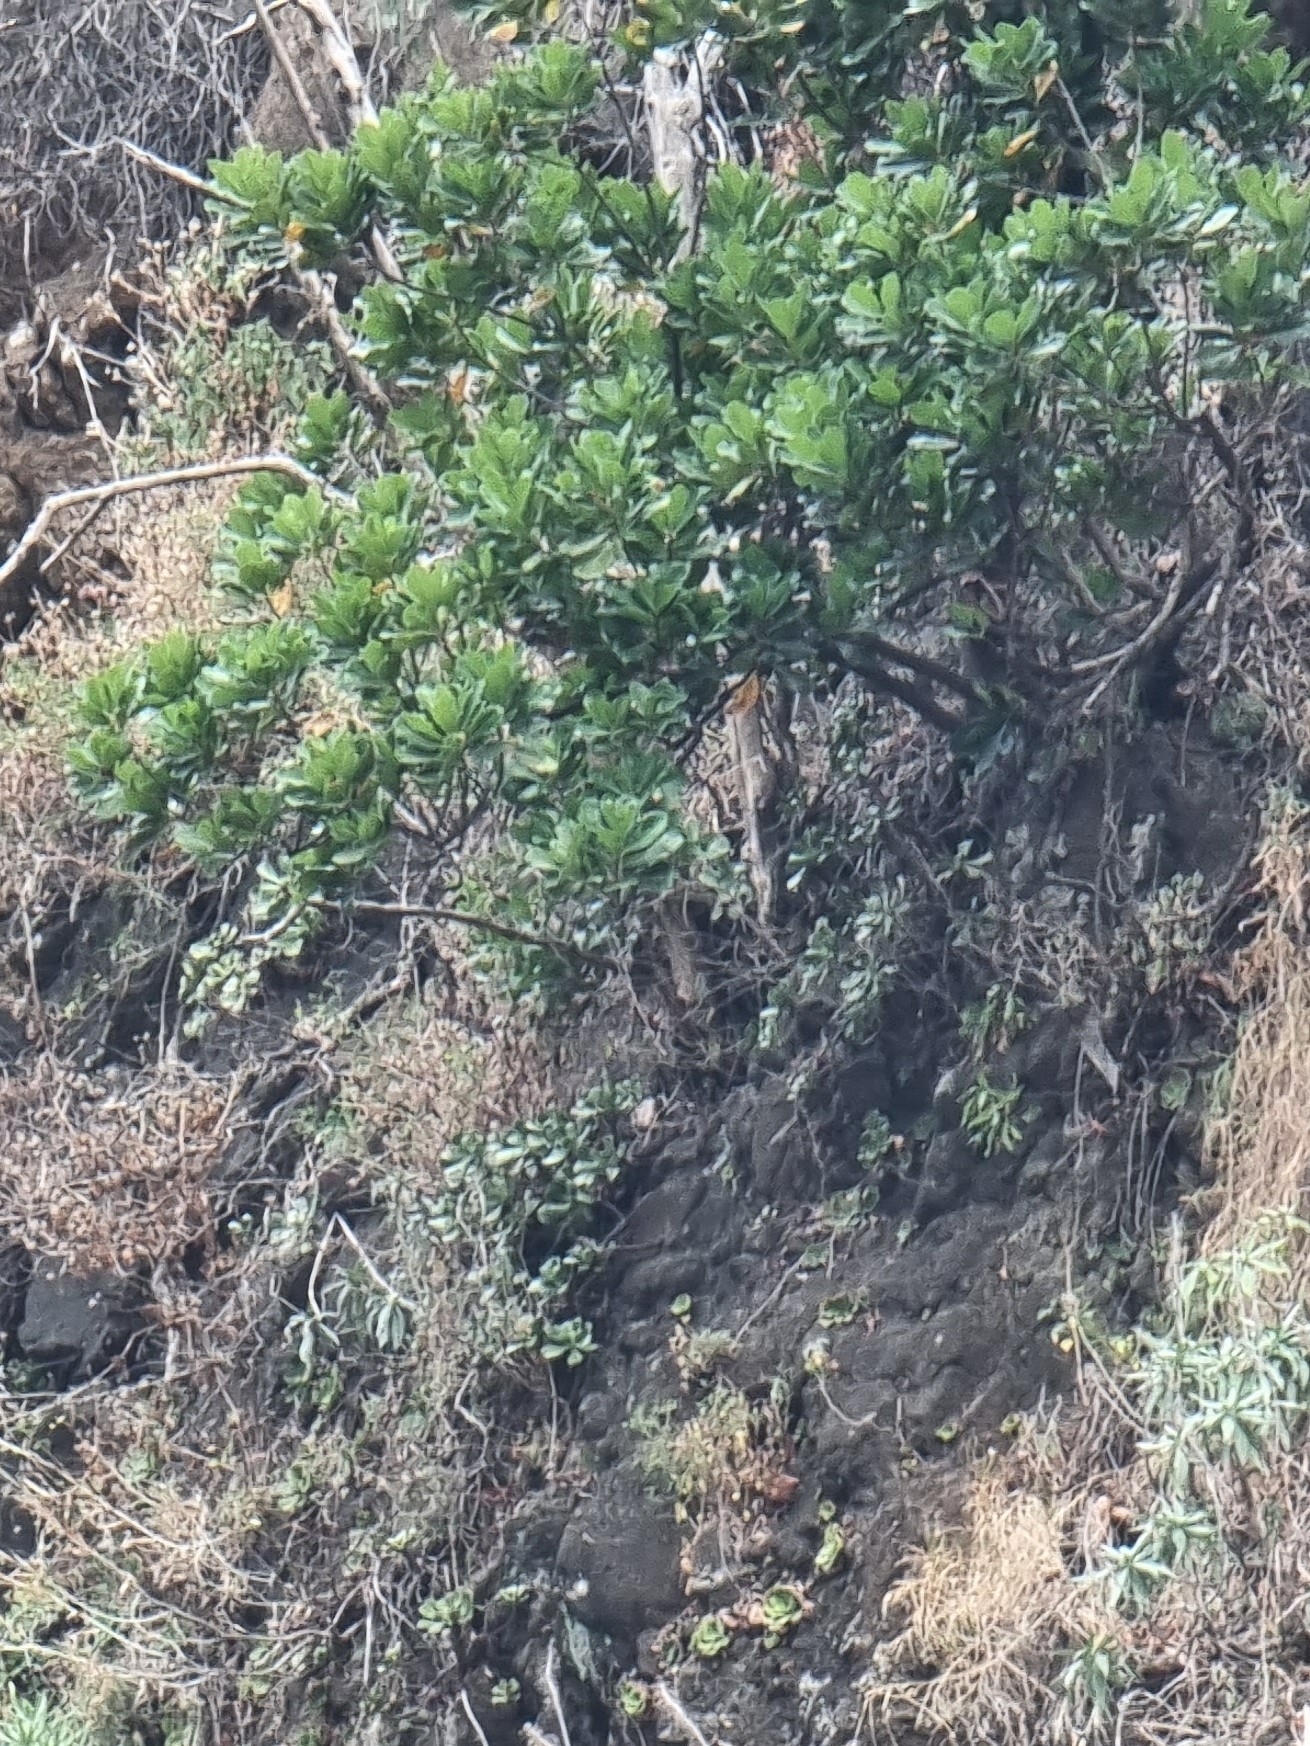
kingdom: Plantae
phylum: Tracheophyta
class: Magnoliopsida
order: Ericales
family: Sapotaceae
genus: Sideroxylon
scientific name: Sideroxylon mirmulans
